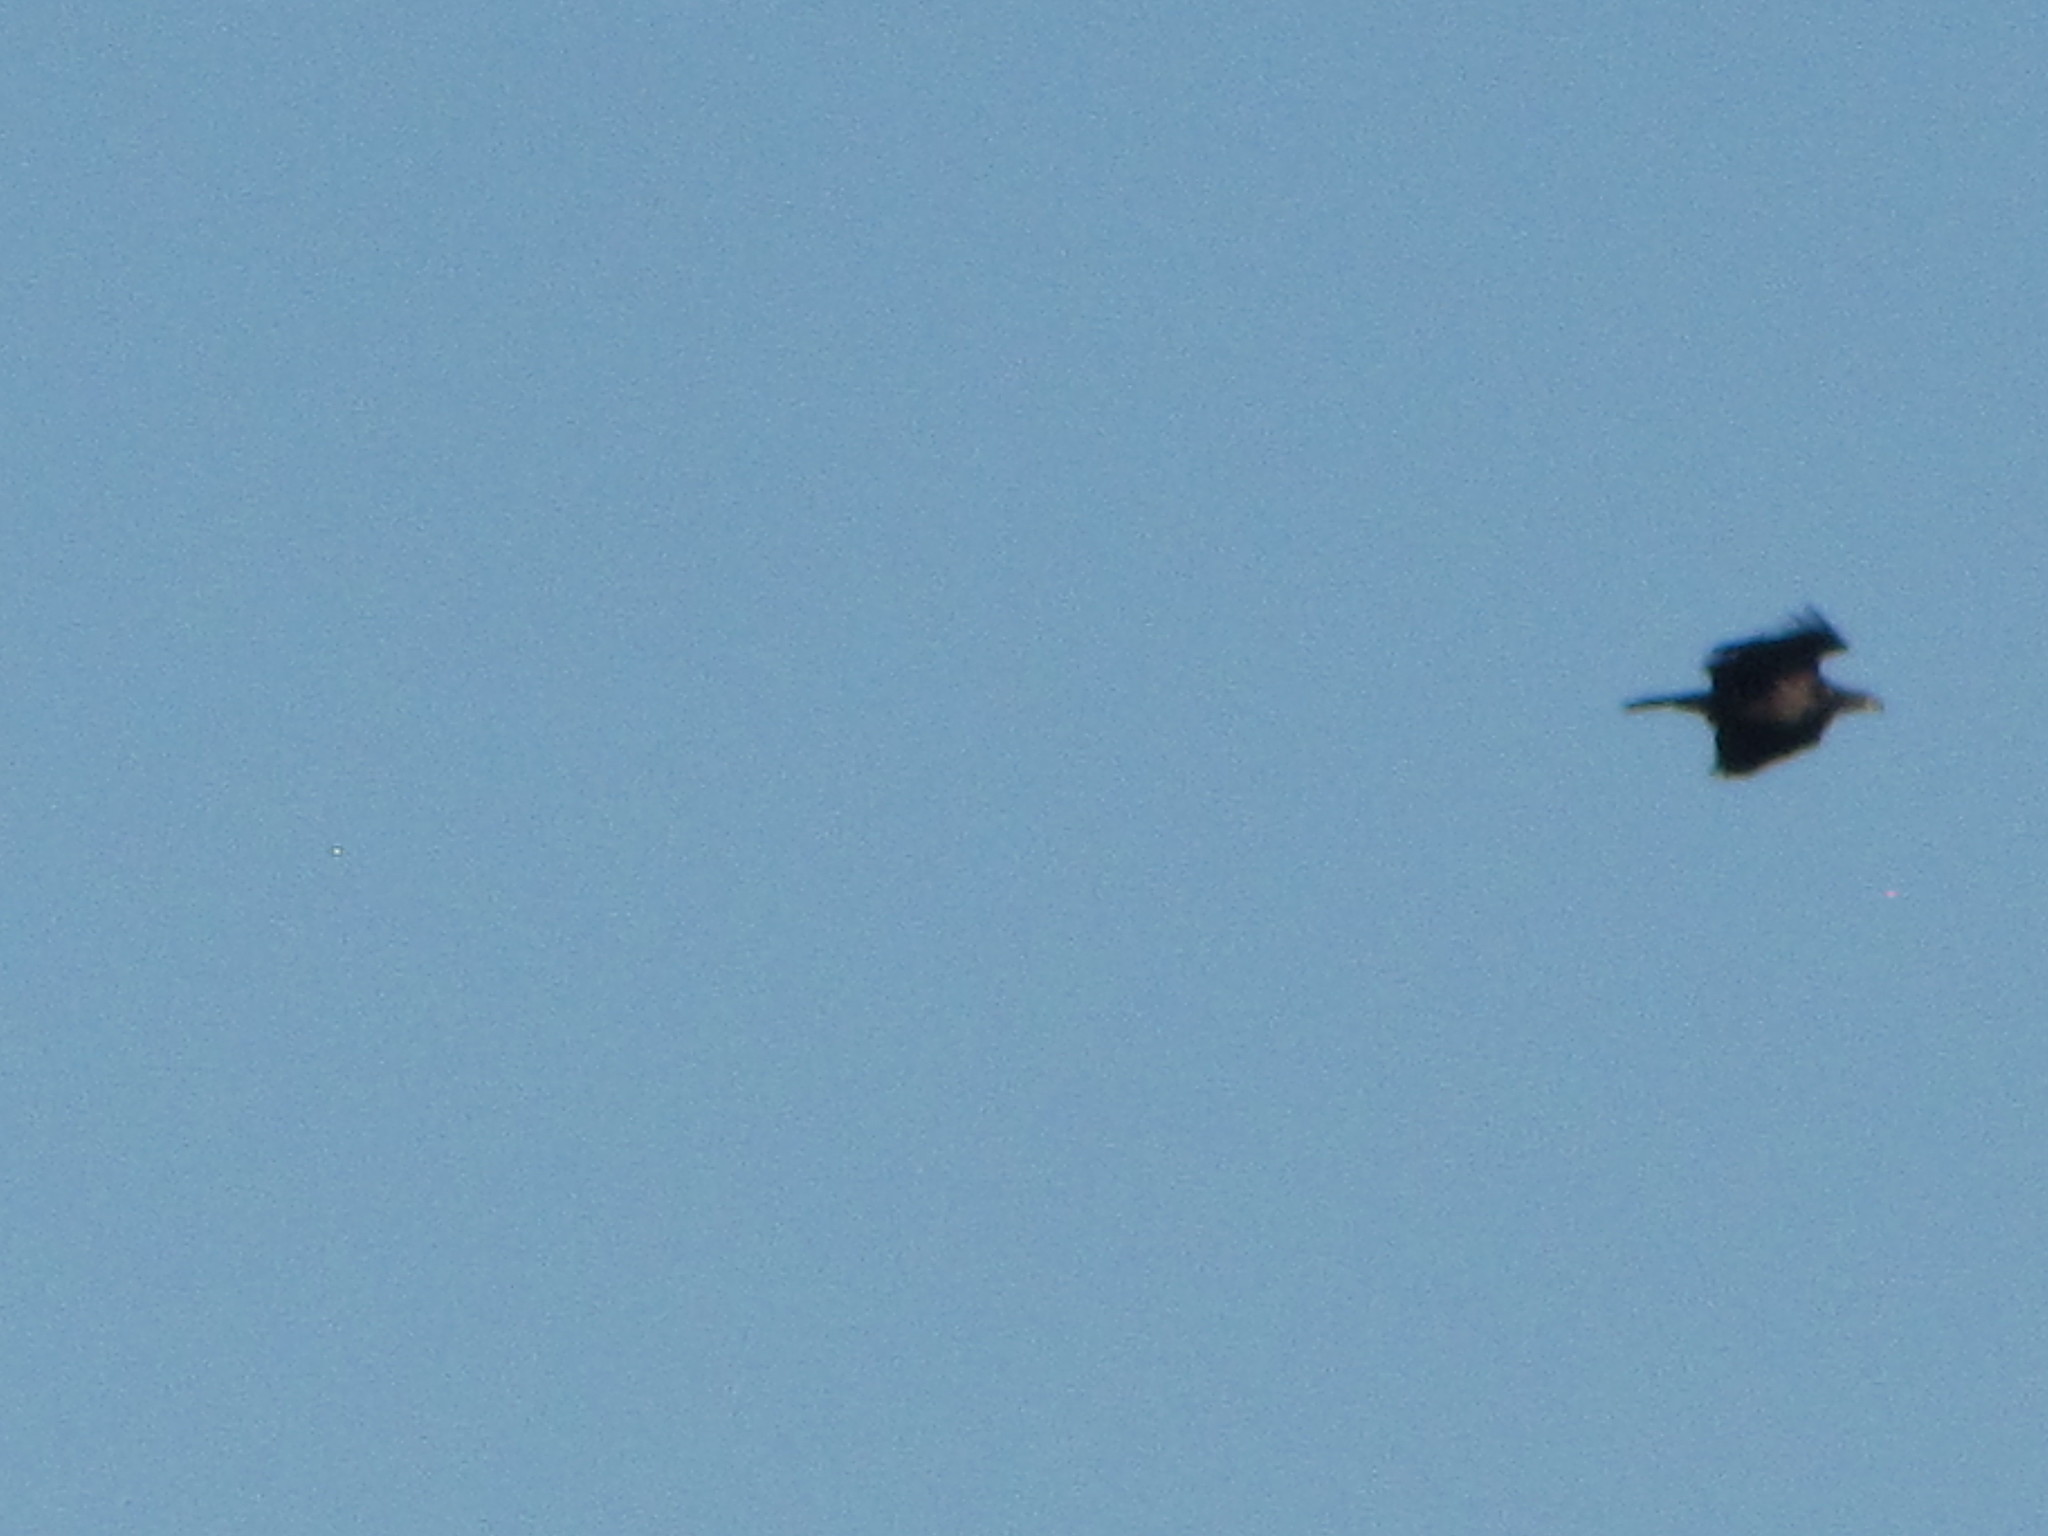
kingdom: Animalia
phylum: Chordata
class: Aves
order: Accipitriformes
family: Accipitridae
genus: Haliaeetus
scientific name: Haliaeetus leucocephalus
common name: Bald eagle
